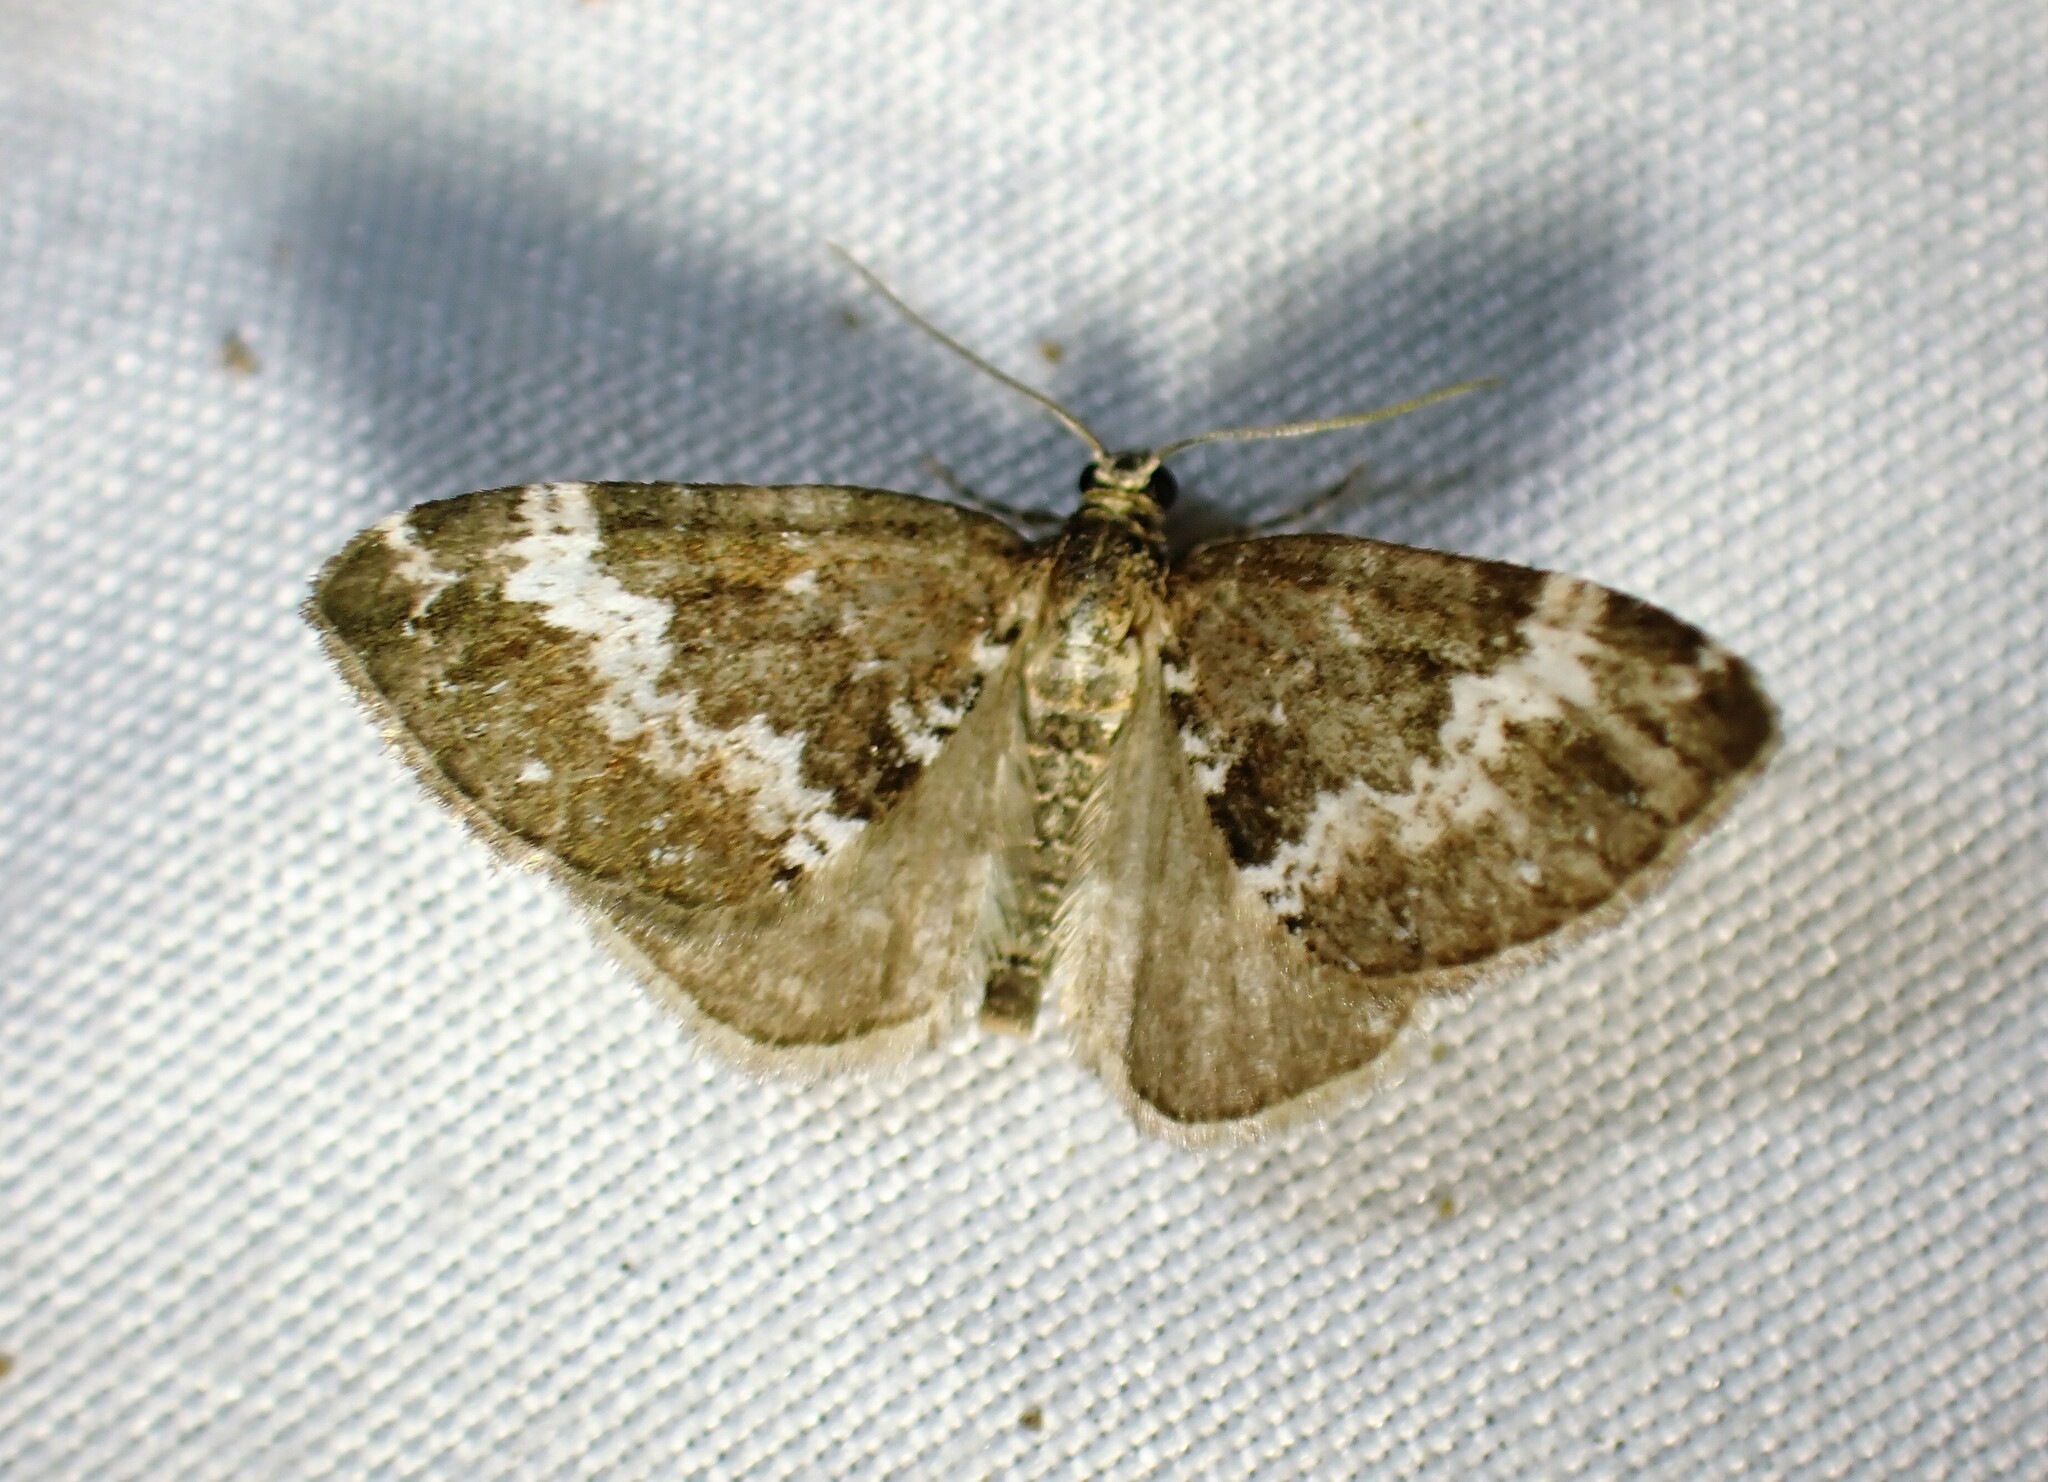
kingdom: Animalia
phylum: Arthropoda
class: Insecta
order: Lepidoptera
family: Geometridae
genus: Perizoma
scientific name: Perizoma alchemillata
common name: Small rivulet
